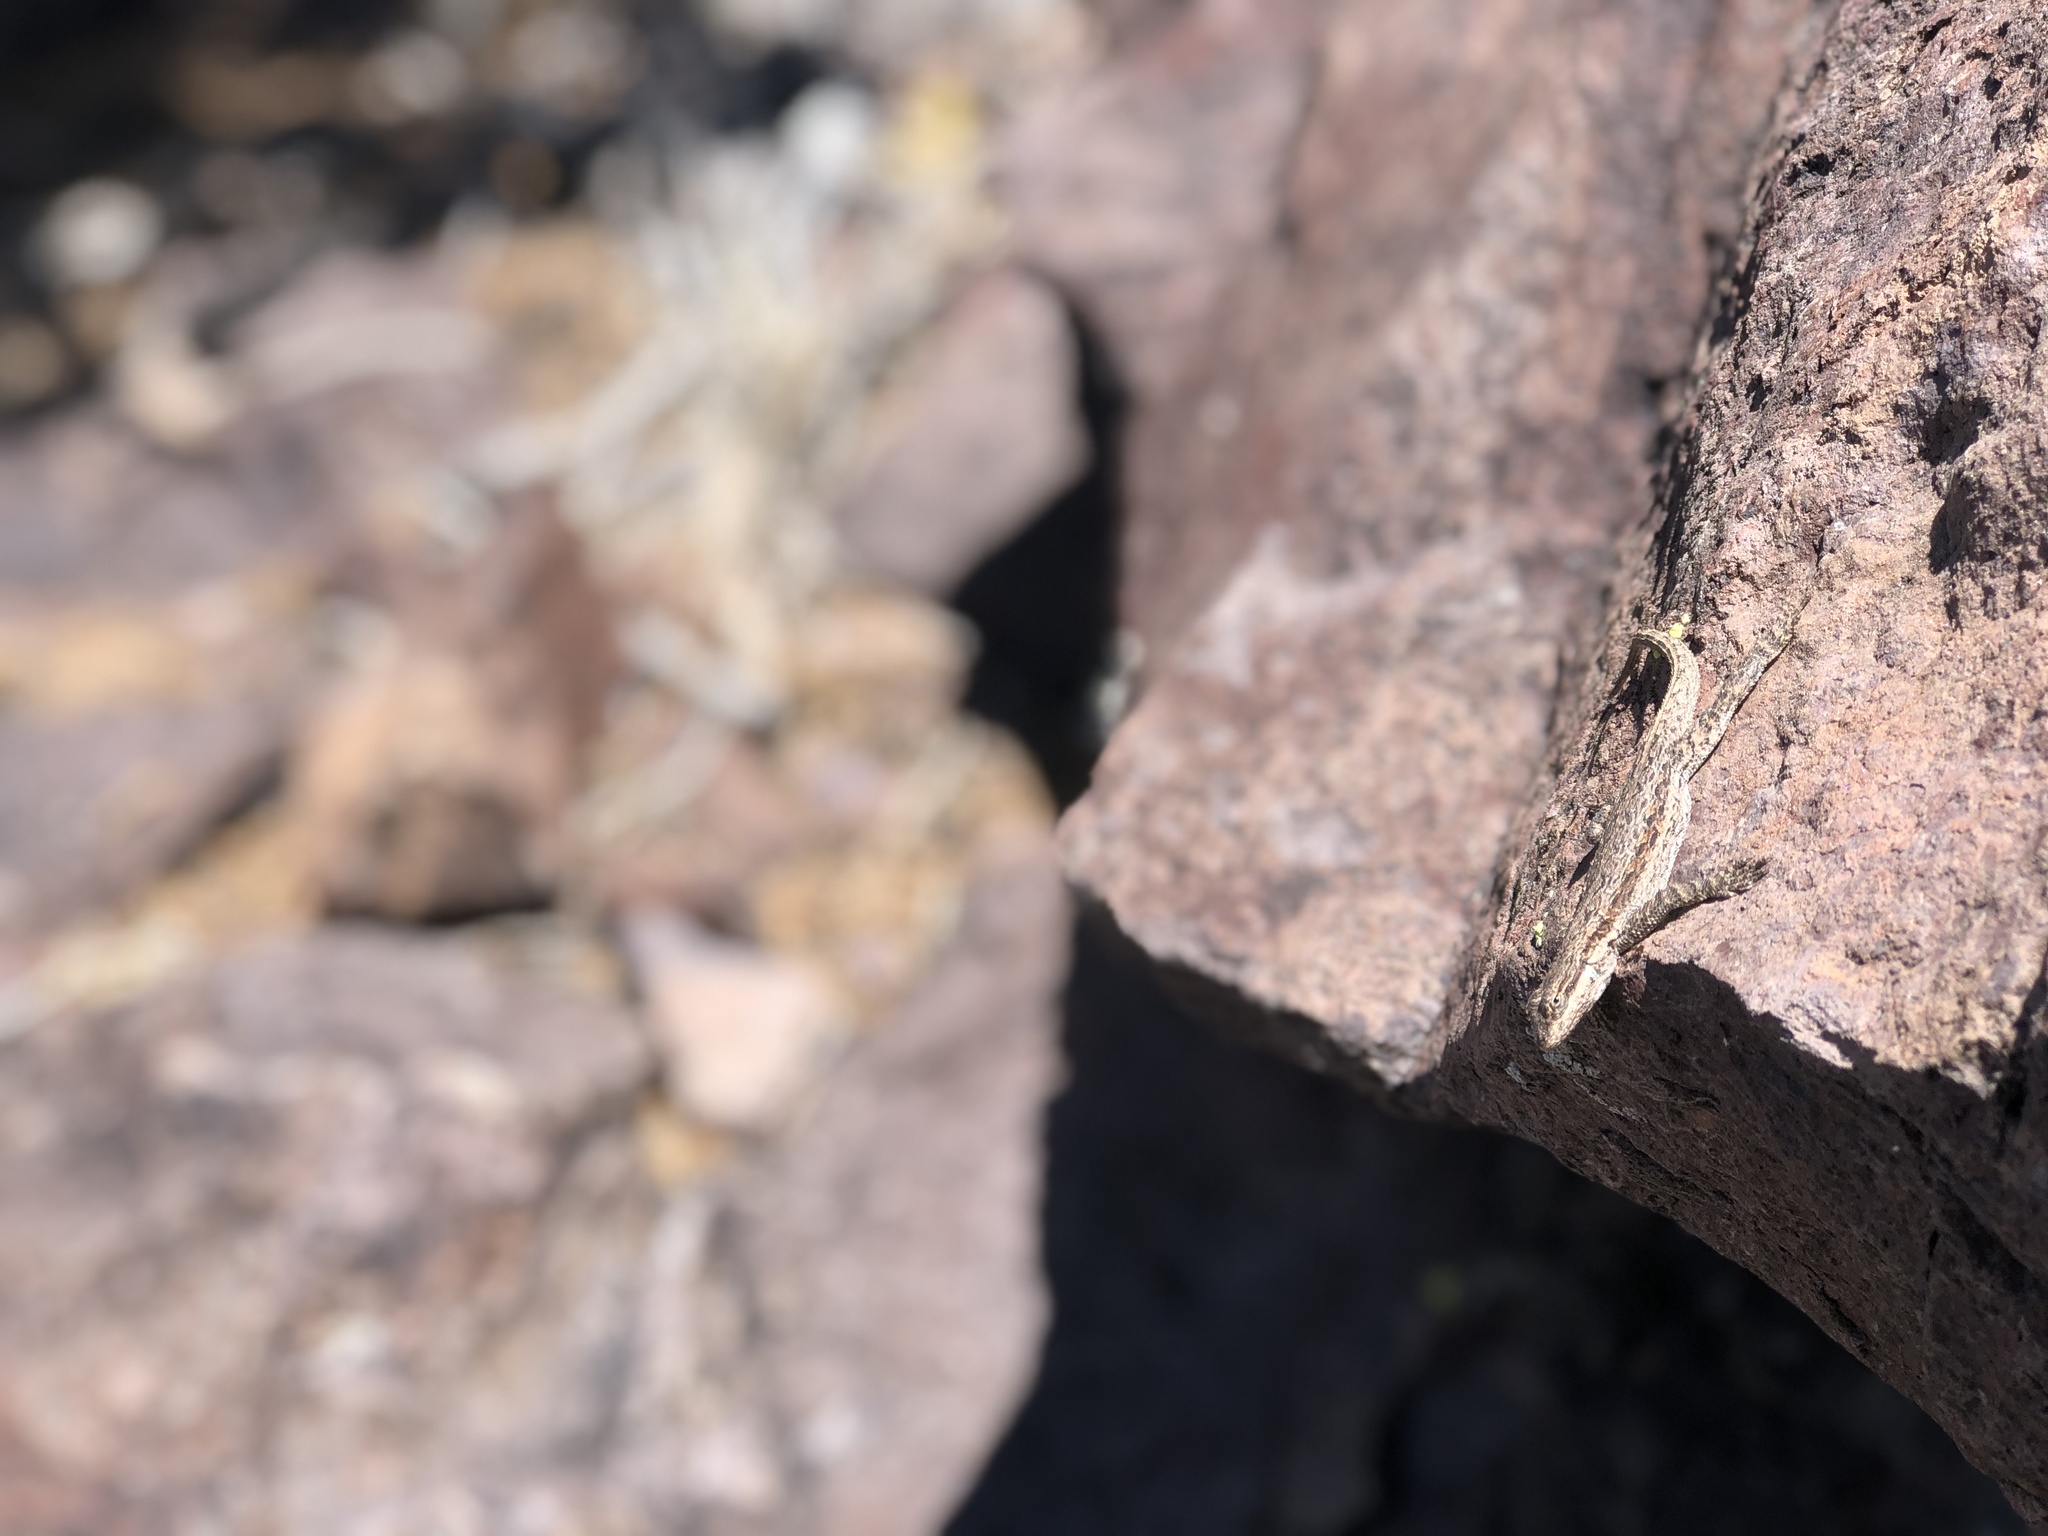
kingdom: Animalia
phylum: Chordata
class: Squamata
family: Phrynosomatidae
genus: Urosaurus
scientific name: Urosaurus ornatus
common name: Ornate tree lizard
